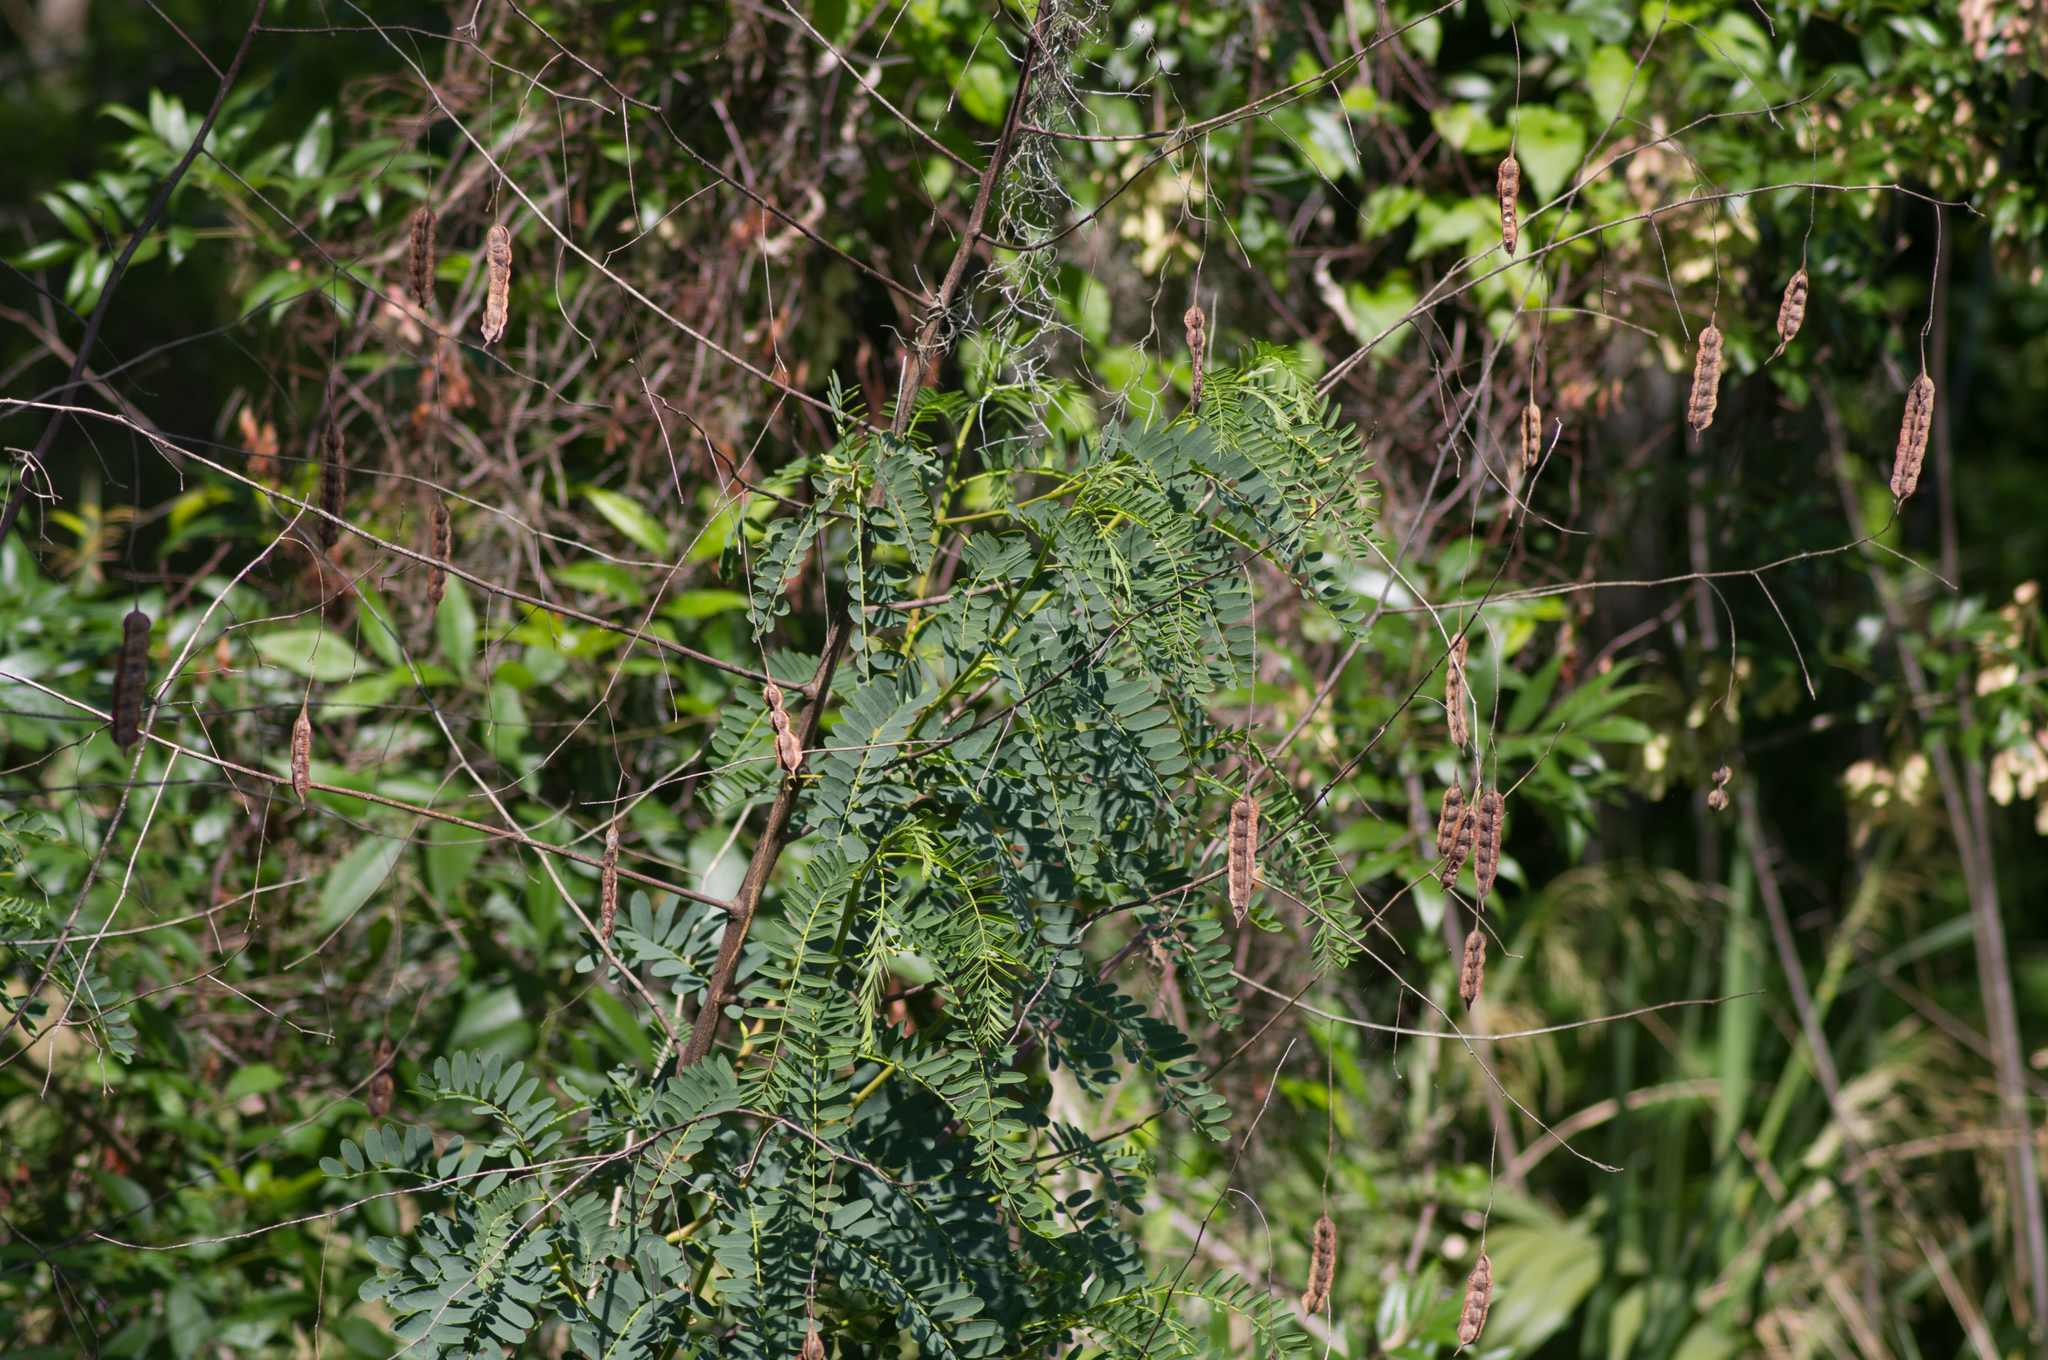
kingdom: Plantae
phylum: Tracheophyta
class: Magnoliopsida
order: Fabales
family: Fabaceae
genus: Sesbania
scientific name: Sesbania drummondii
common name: Poison-bean
